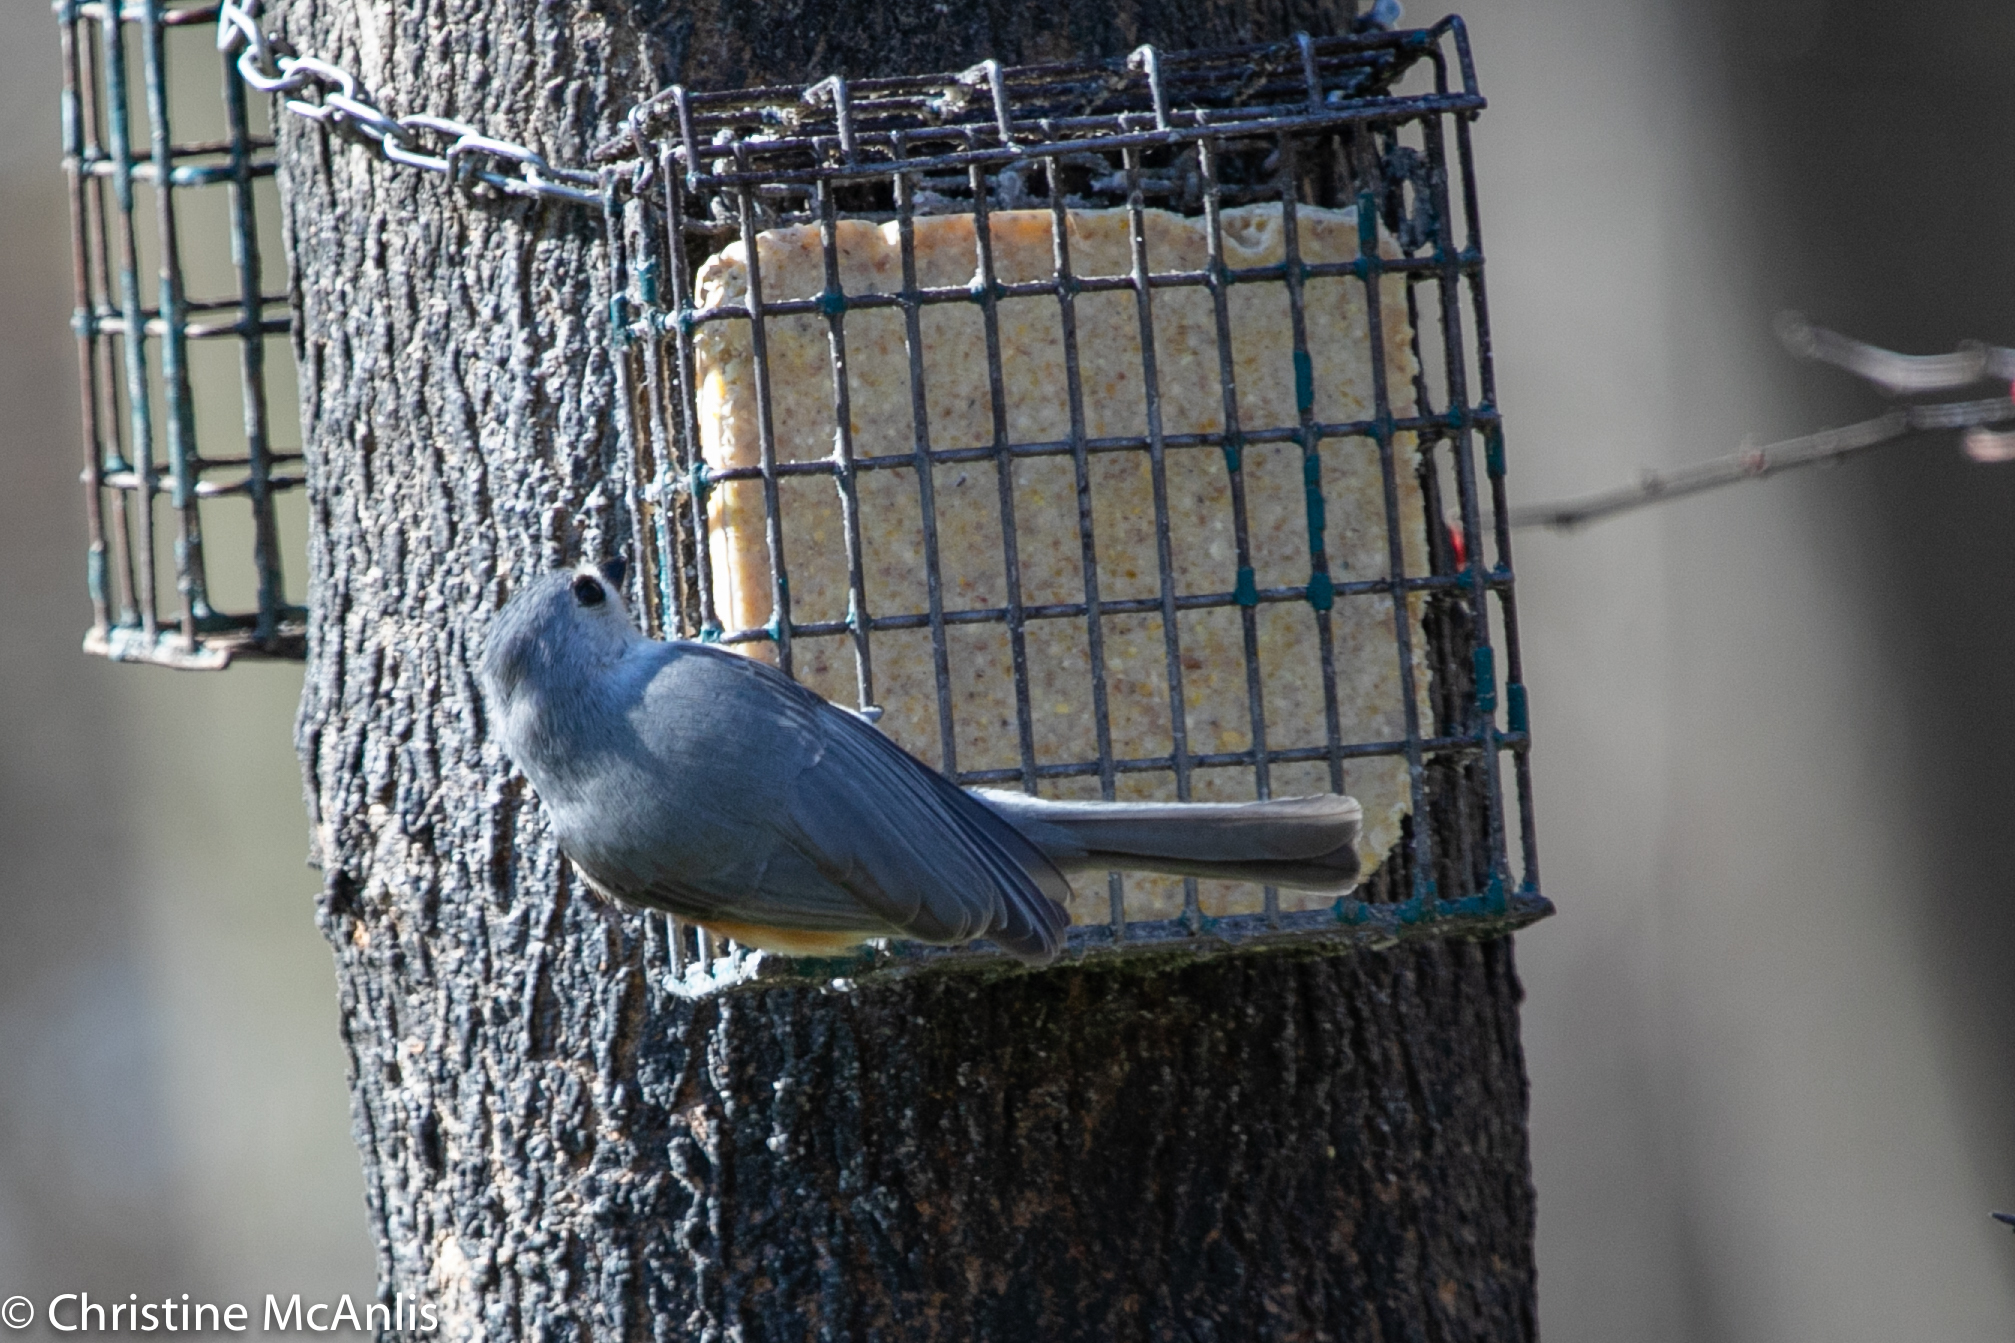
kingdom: Animalia
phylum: Chordata
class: Aves
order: Passeriformes
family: Paridae
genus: Baeolophus
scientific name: Baeolophus bicolor
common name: Tufted titmouse
